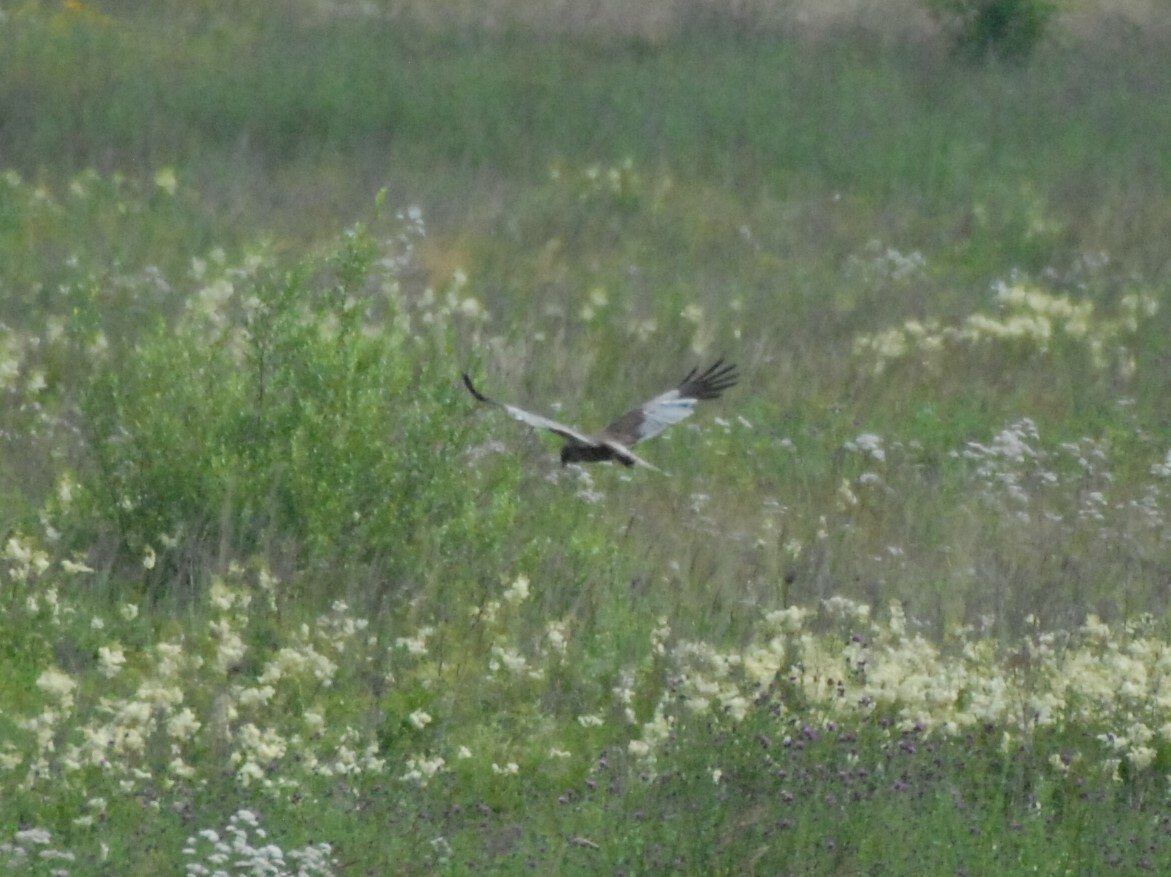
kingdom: Animalia
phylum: Chordata
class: Aves
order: Accipitriformes
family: Accipitridae
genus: Circus
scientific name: Circus aeruginosus
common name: Western marsh harrier
